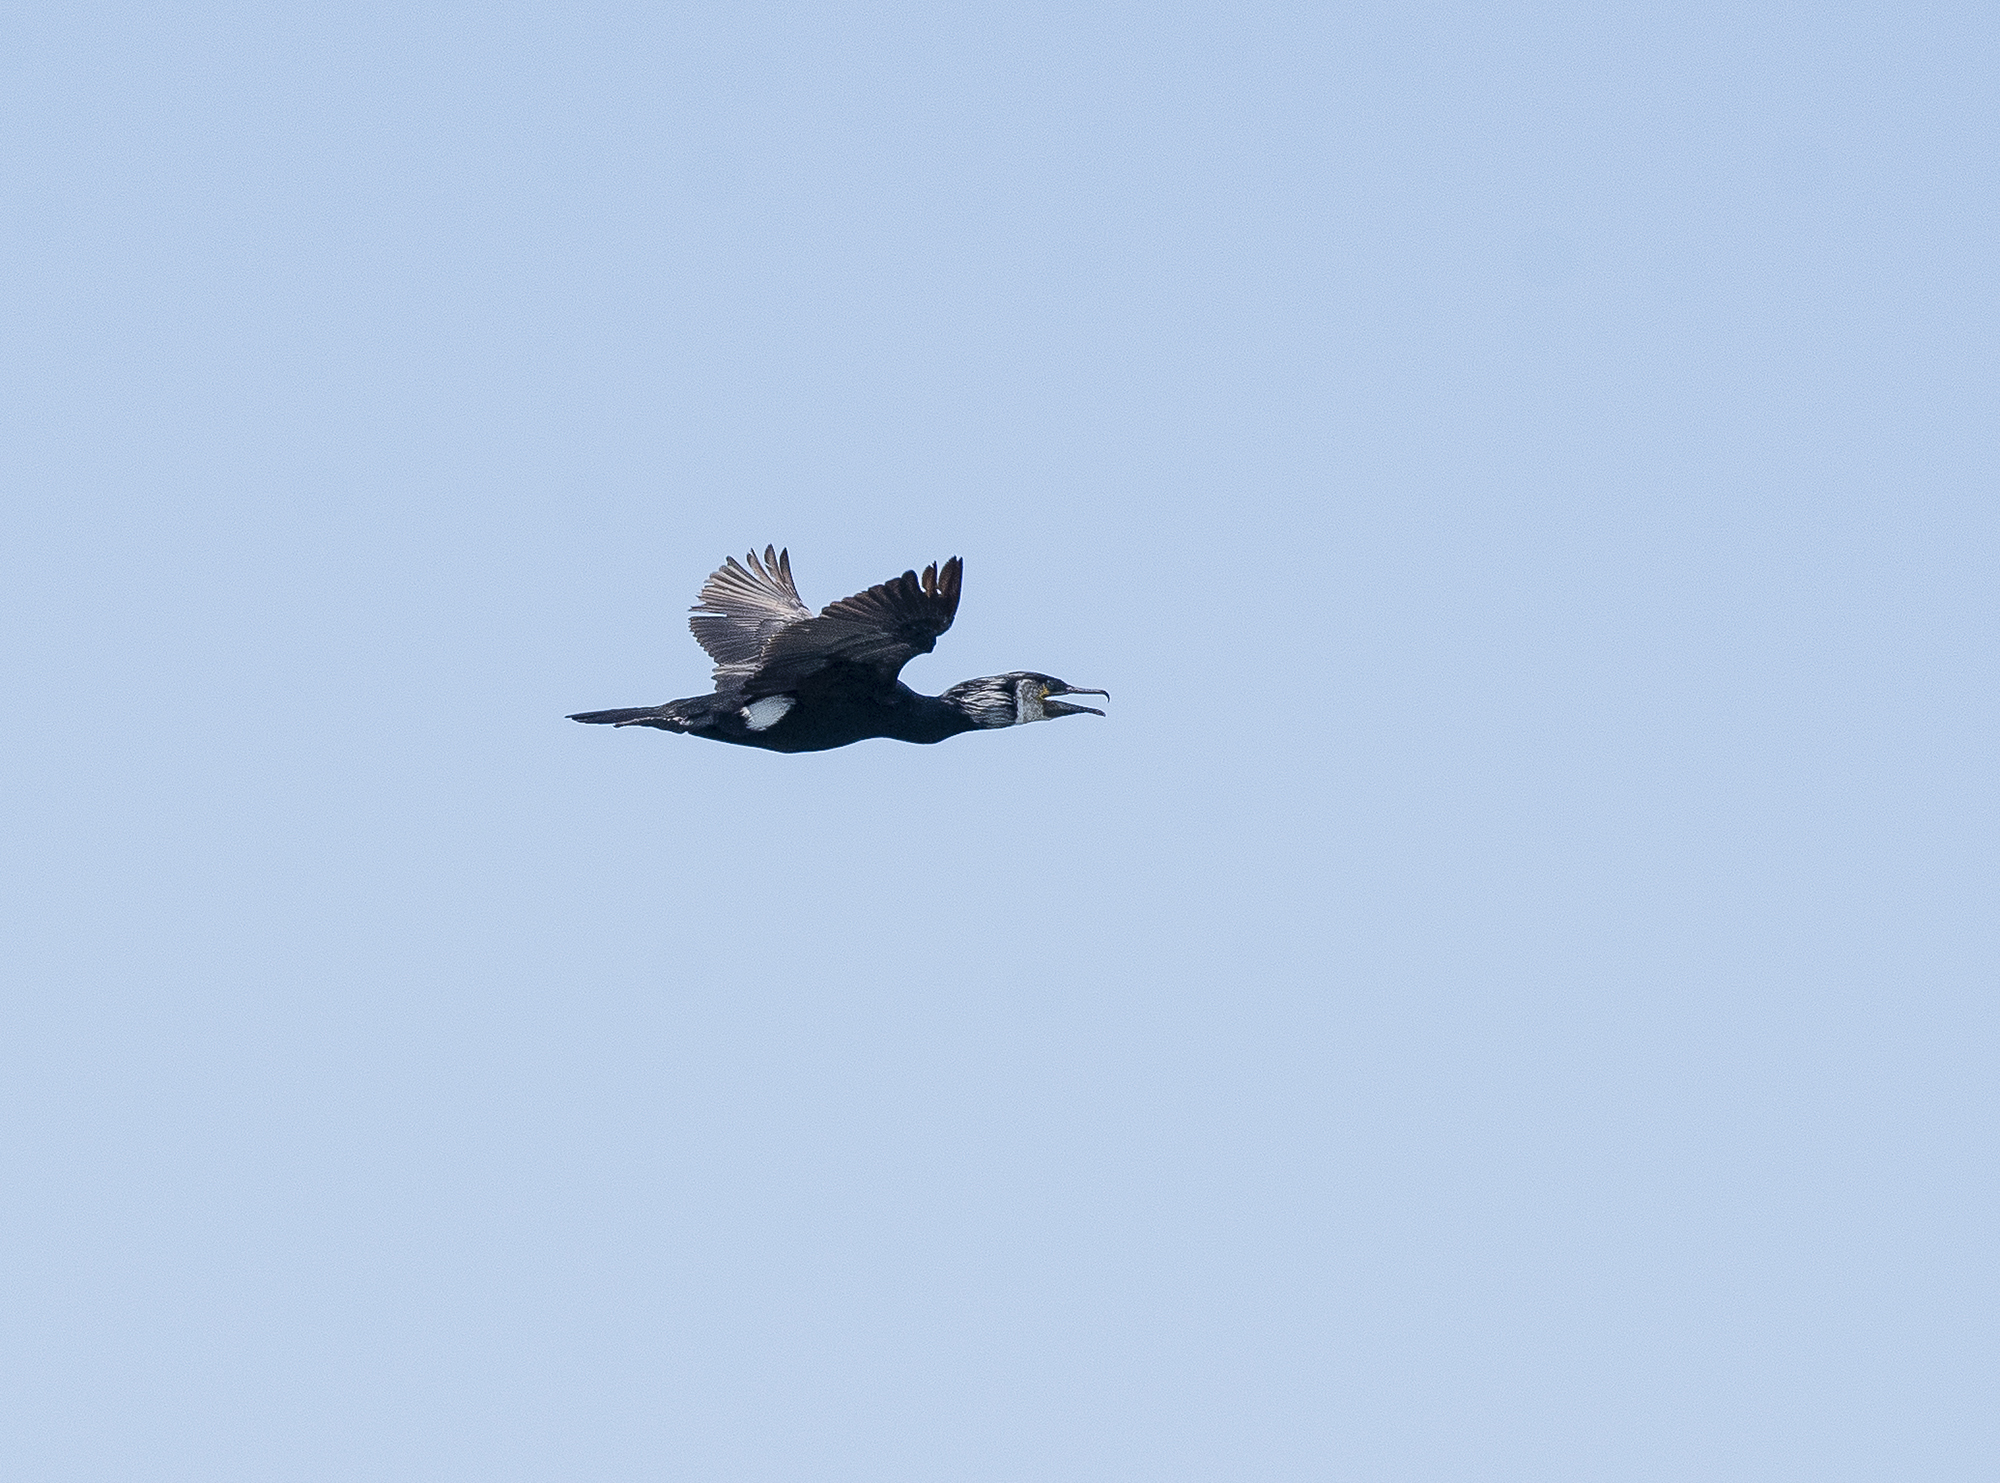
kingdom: Animalia
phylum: Chordata
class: Aves
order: Suliformes
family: Phalacrocoracidae
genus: Phalacrocorax
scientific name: Phalacrocorax capillatus
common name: Japanese cormorant
